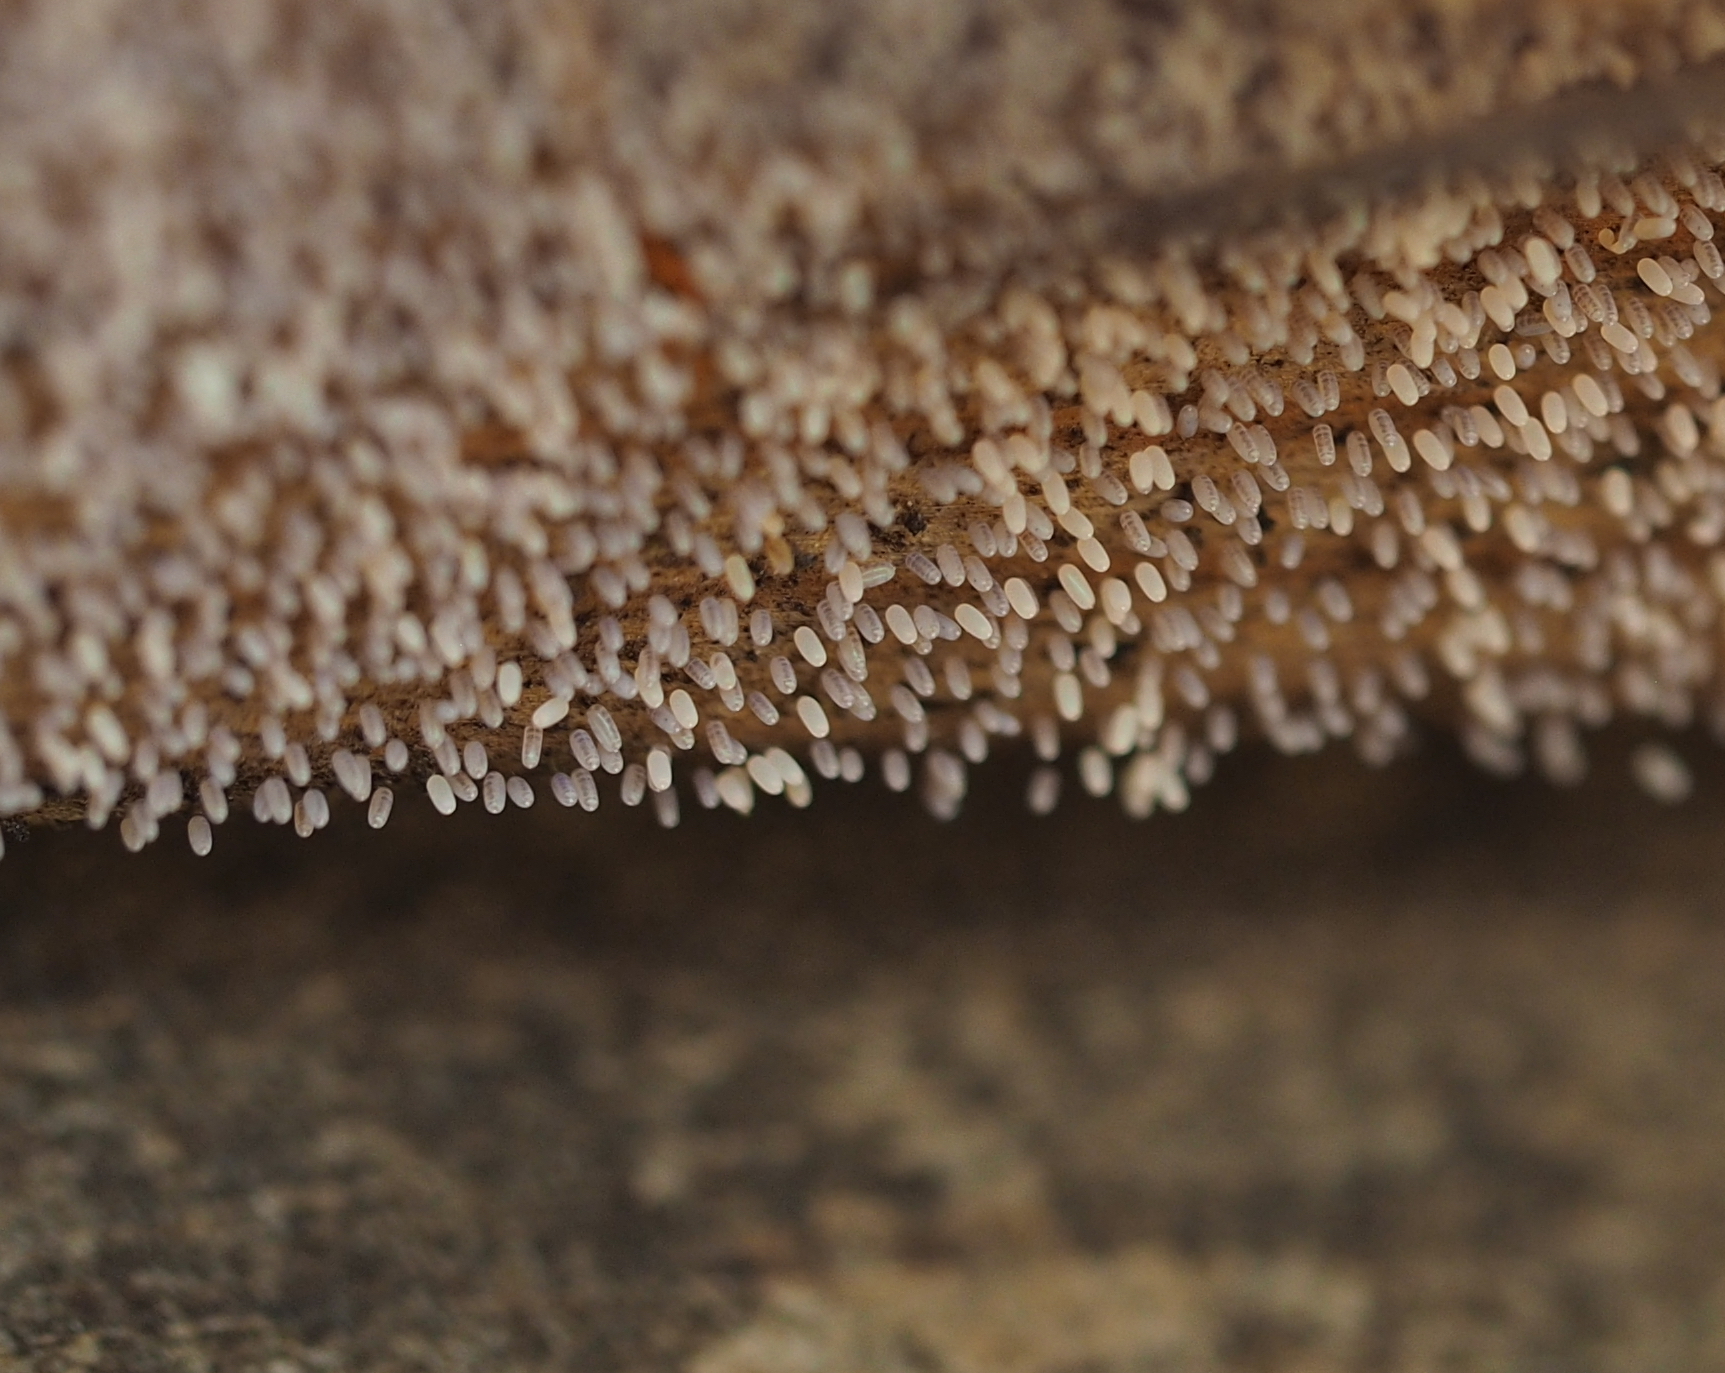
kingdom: Animalia
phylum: Arthropoda
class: Insecta
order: Neuroptera
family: Mantispidae
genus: Mantispa
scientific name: Mantispa styriaca
